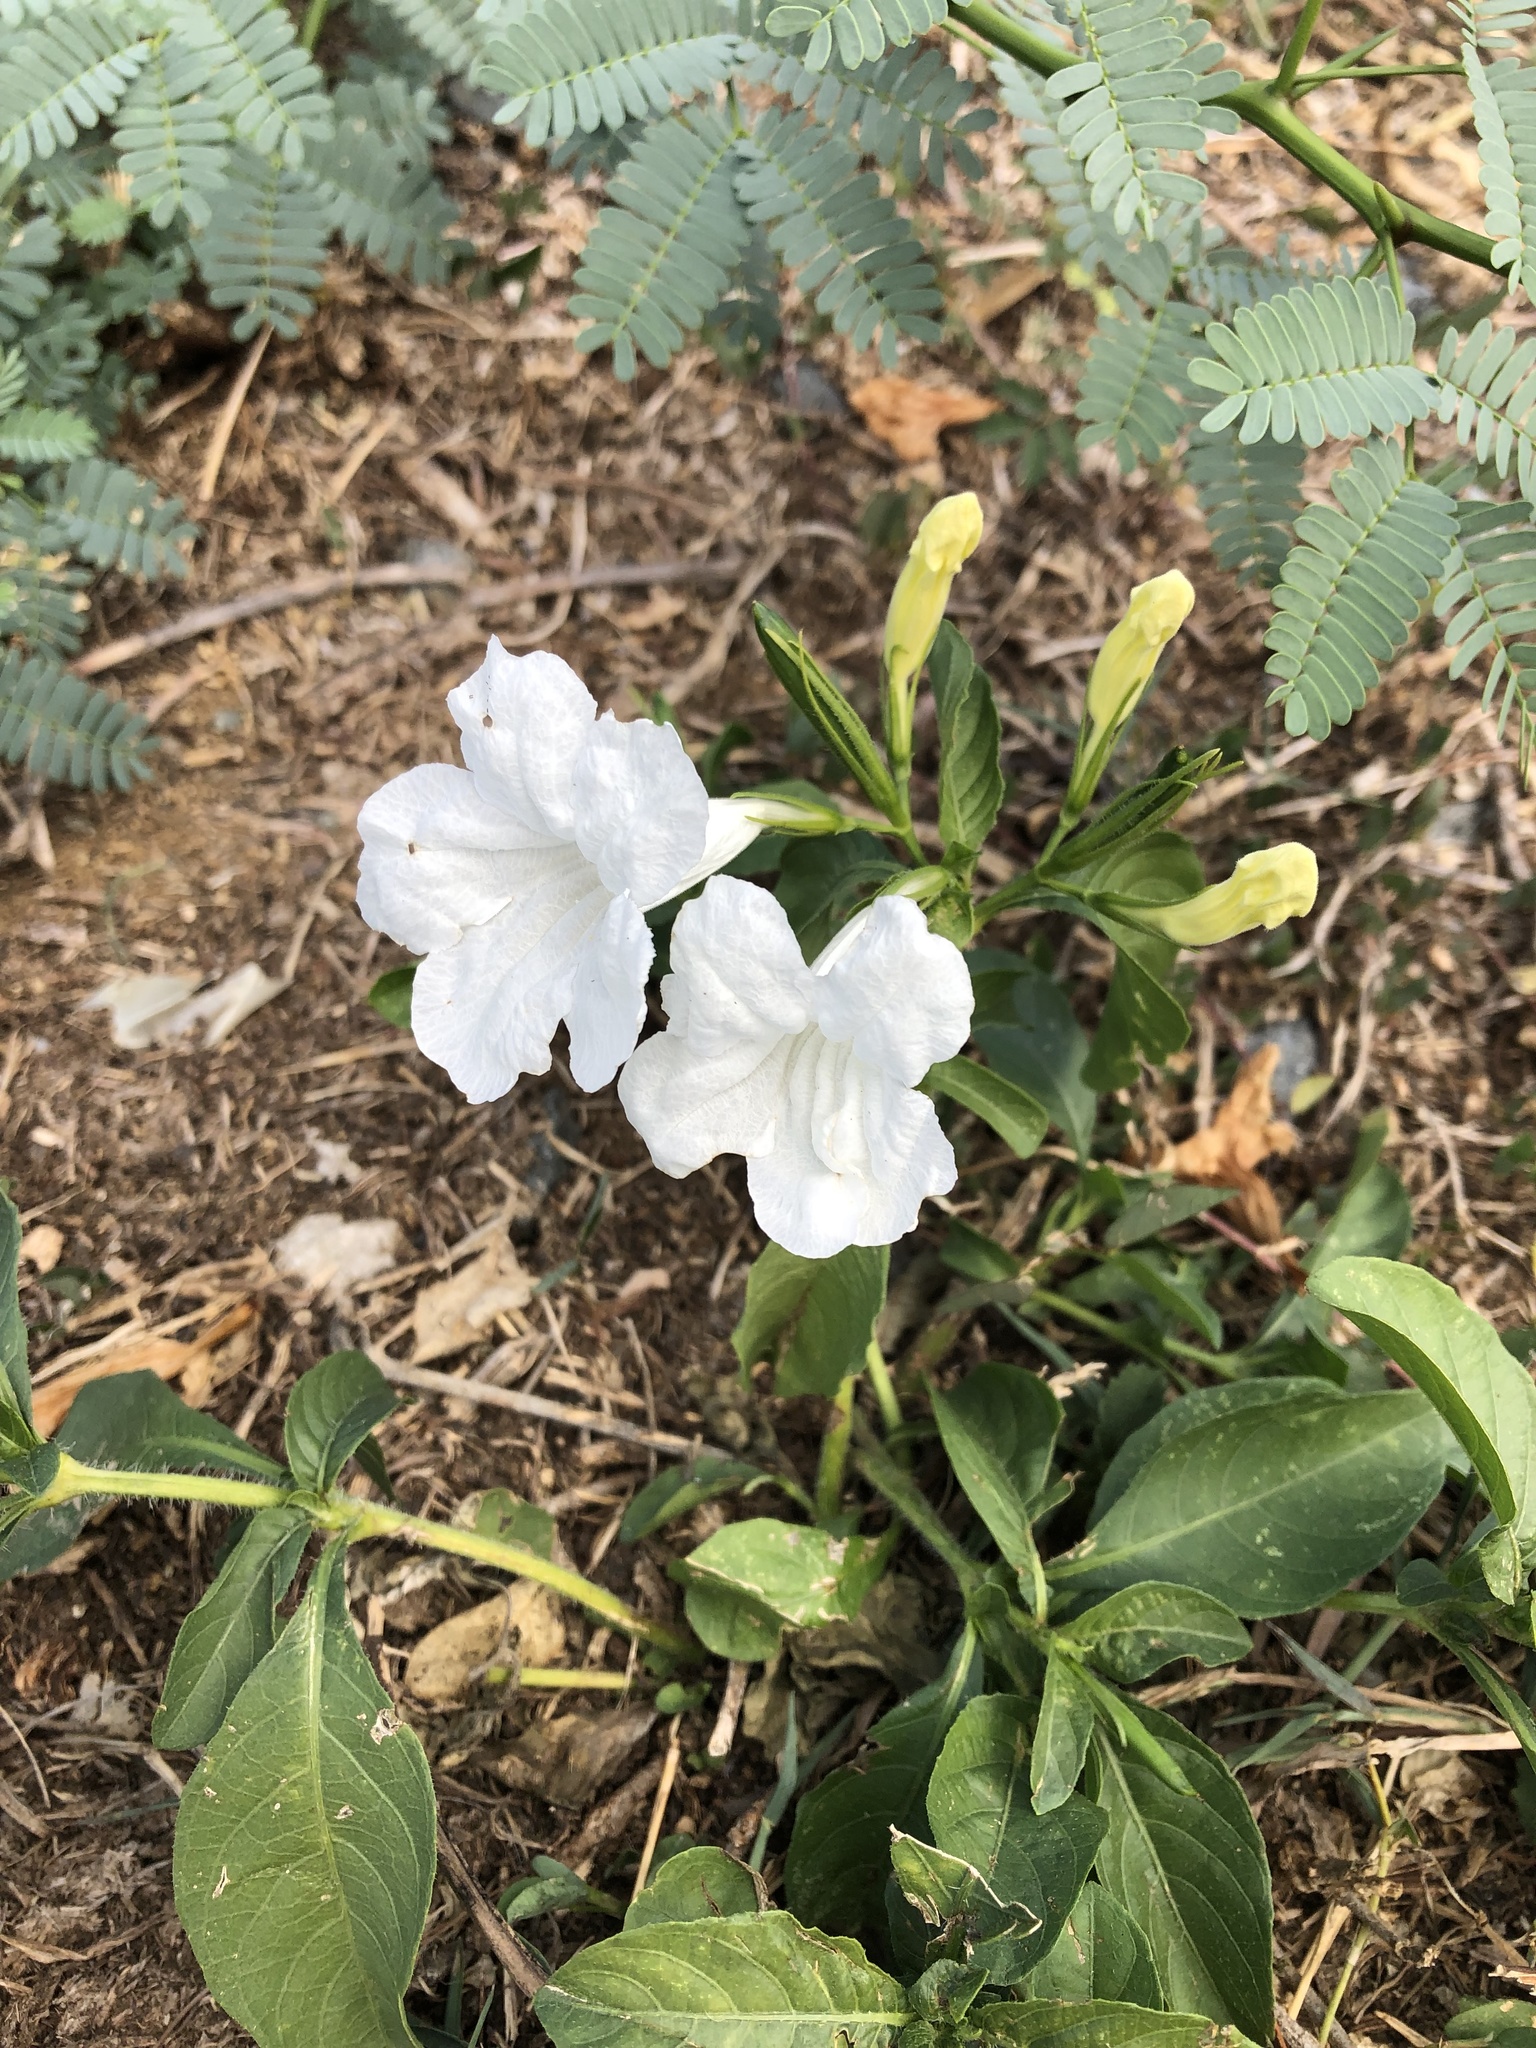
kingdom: Plantae
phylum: Tracheophyta
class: Magnoliopsida
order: Lamiales
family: Acanthaceae
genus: Ruellia
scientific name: Ruellia tuberosa
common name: Devil's bit
